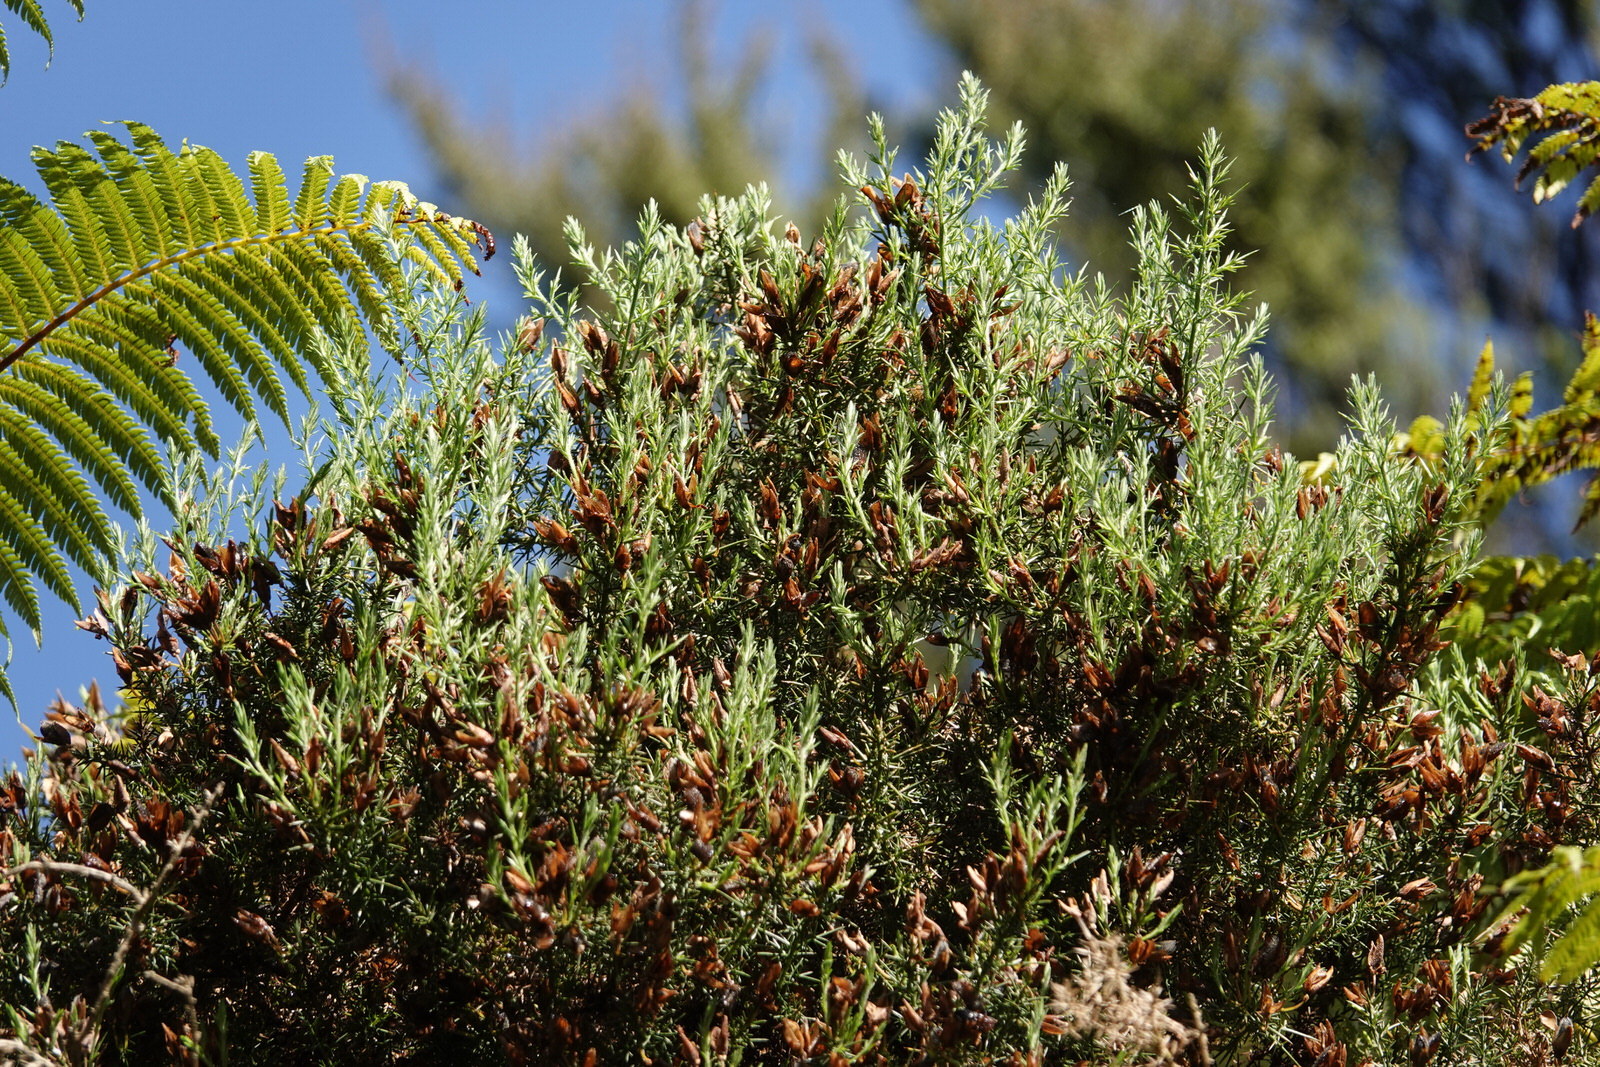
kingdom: Plantae
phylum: Tracheophyta
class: Magnoliopsida
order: Fabales
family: Fabaceae
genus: Ulex
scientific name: Ulex europaeus
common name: Common gorse
